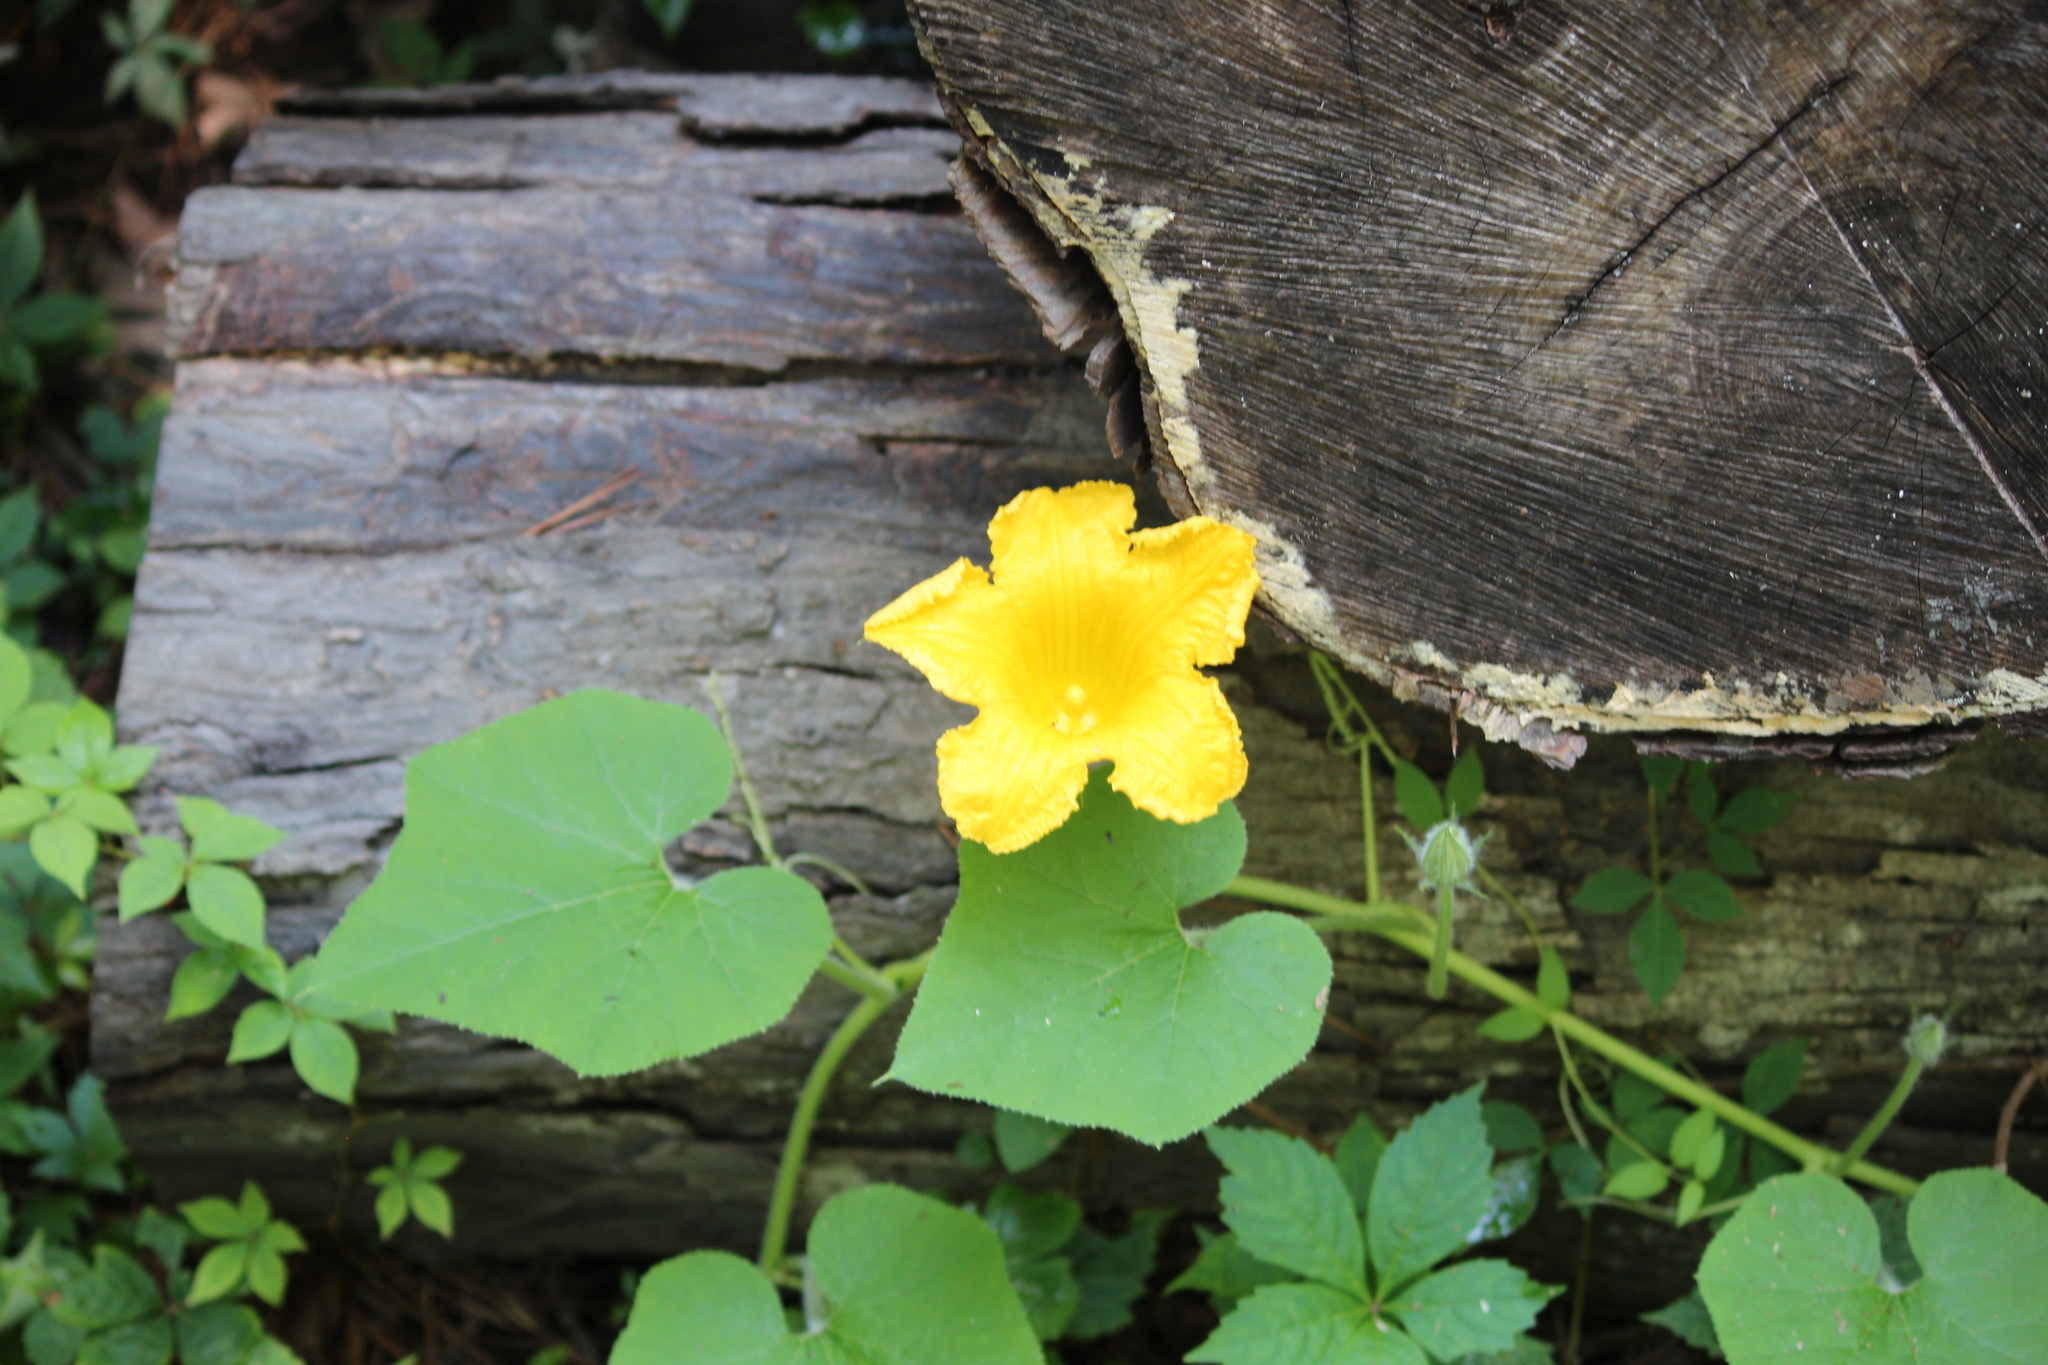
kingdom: Plantae
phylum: Tracheophyta
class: Magnoliopsida
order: Cucurbitales
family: Cucurbitaceae
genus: Cucurbita
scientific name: Cucurbita pepo
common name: Marrow
